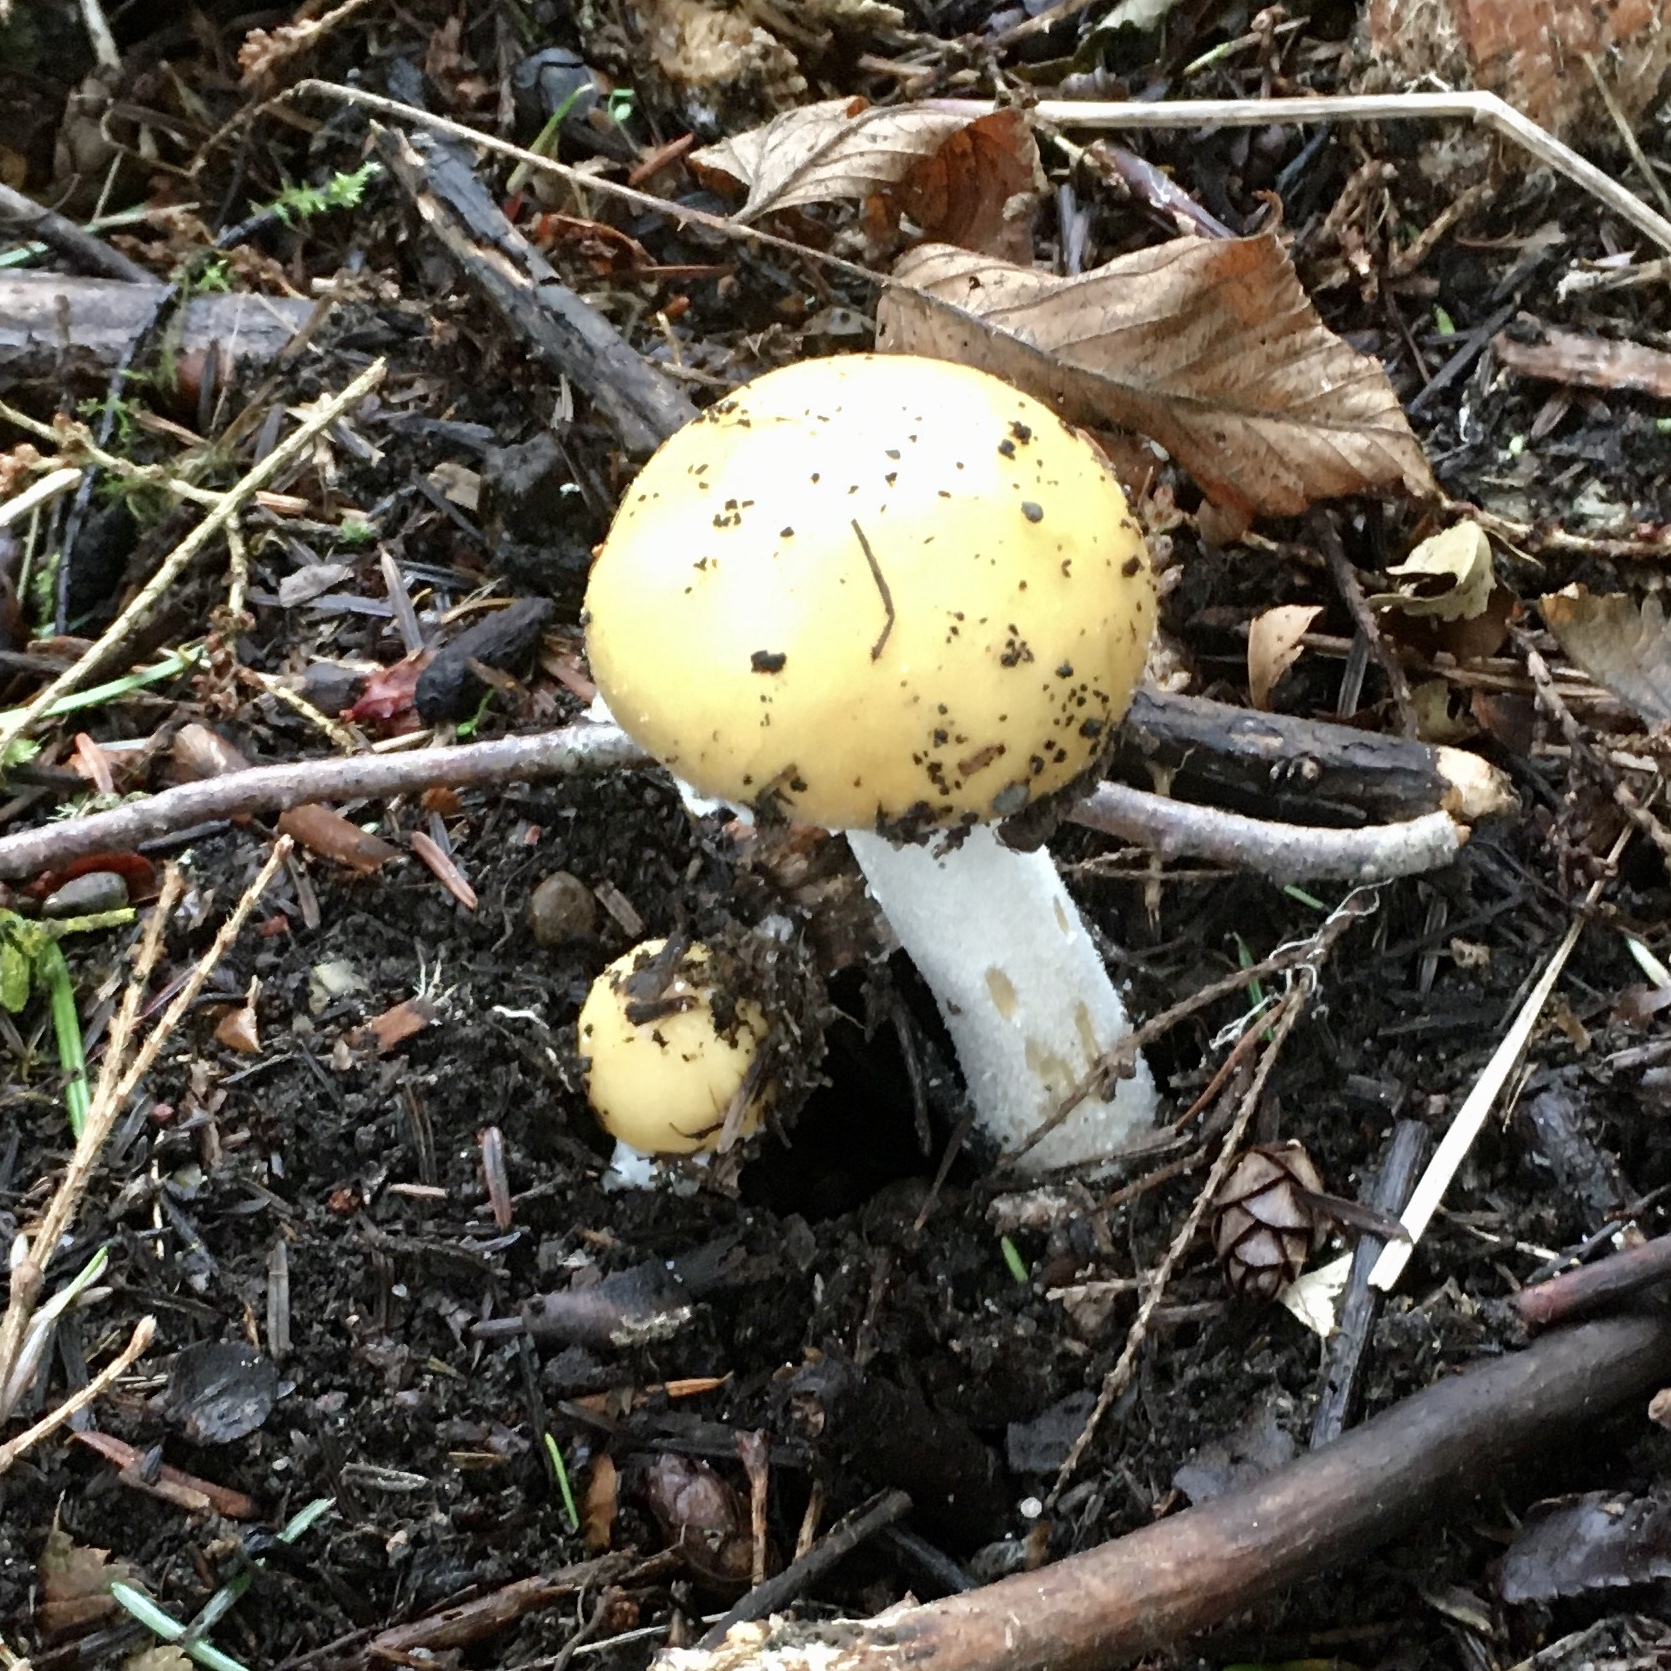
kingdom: Fungi
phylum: Basidiomycota
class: Agaricomycetes
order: Agaricales
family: Strophariaceae
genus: Stropharia
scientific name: Stropharia ambigua
